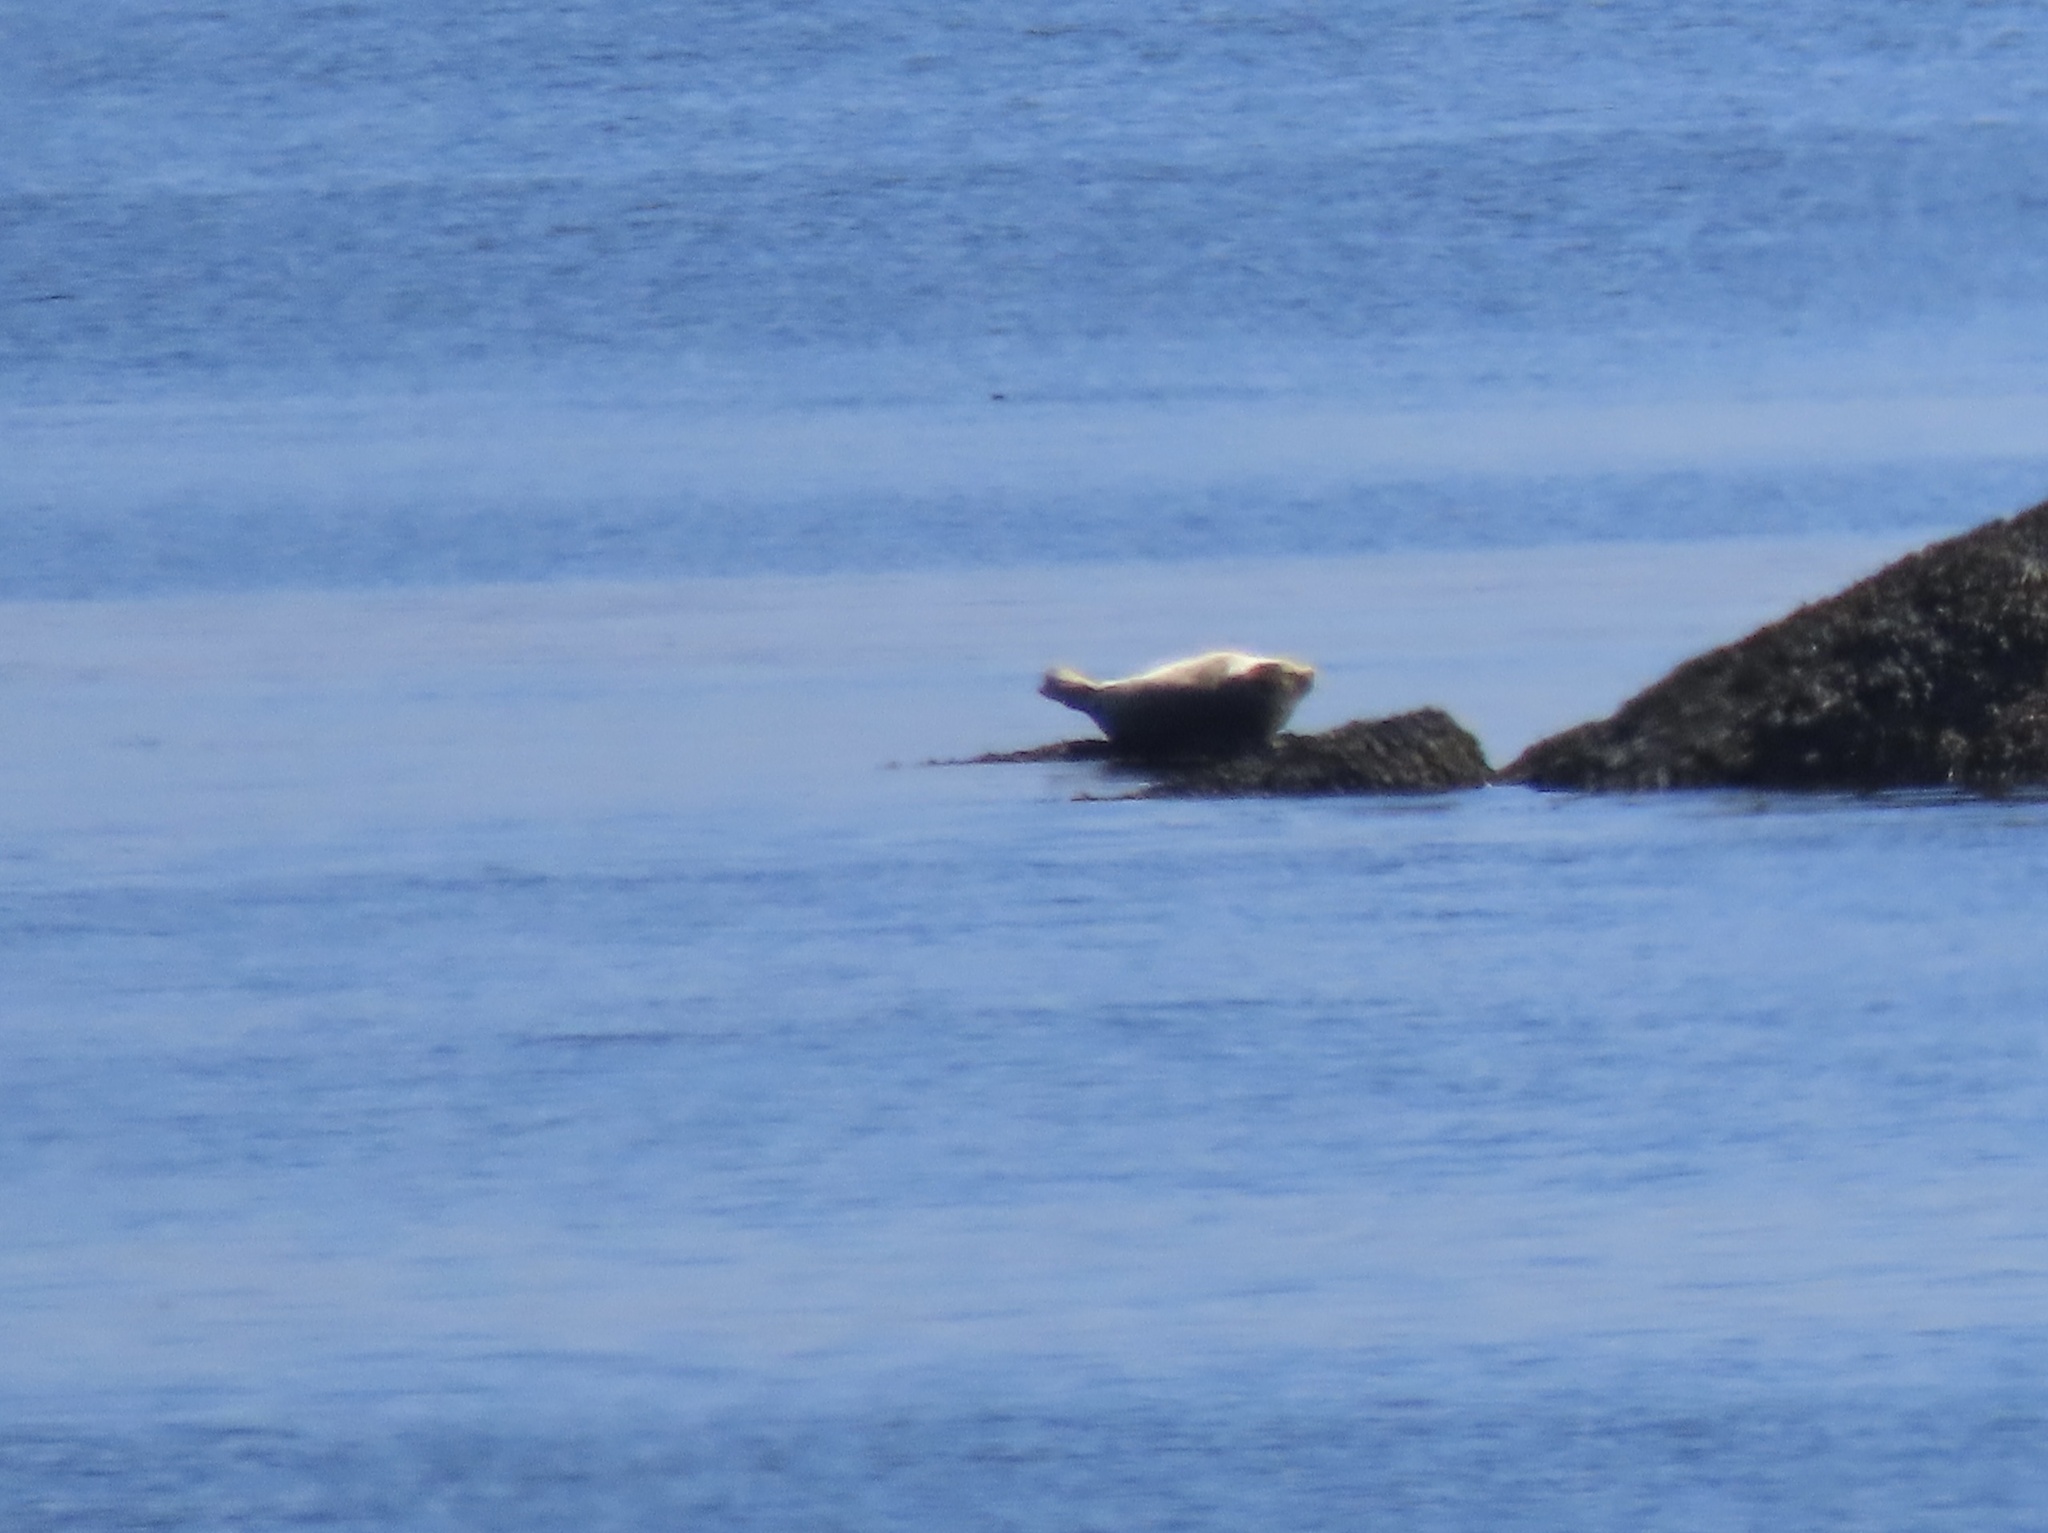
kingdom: Animalia
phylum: Chordata
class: Mammalia
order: Carnivora
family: Phocidae
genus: Phoca
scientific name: Phoca vitulina
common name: Harbor seal
